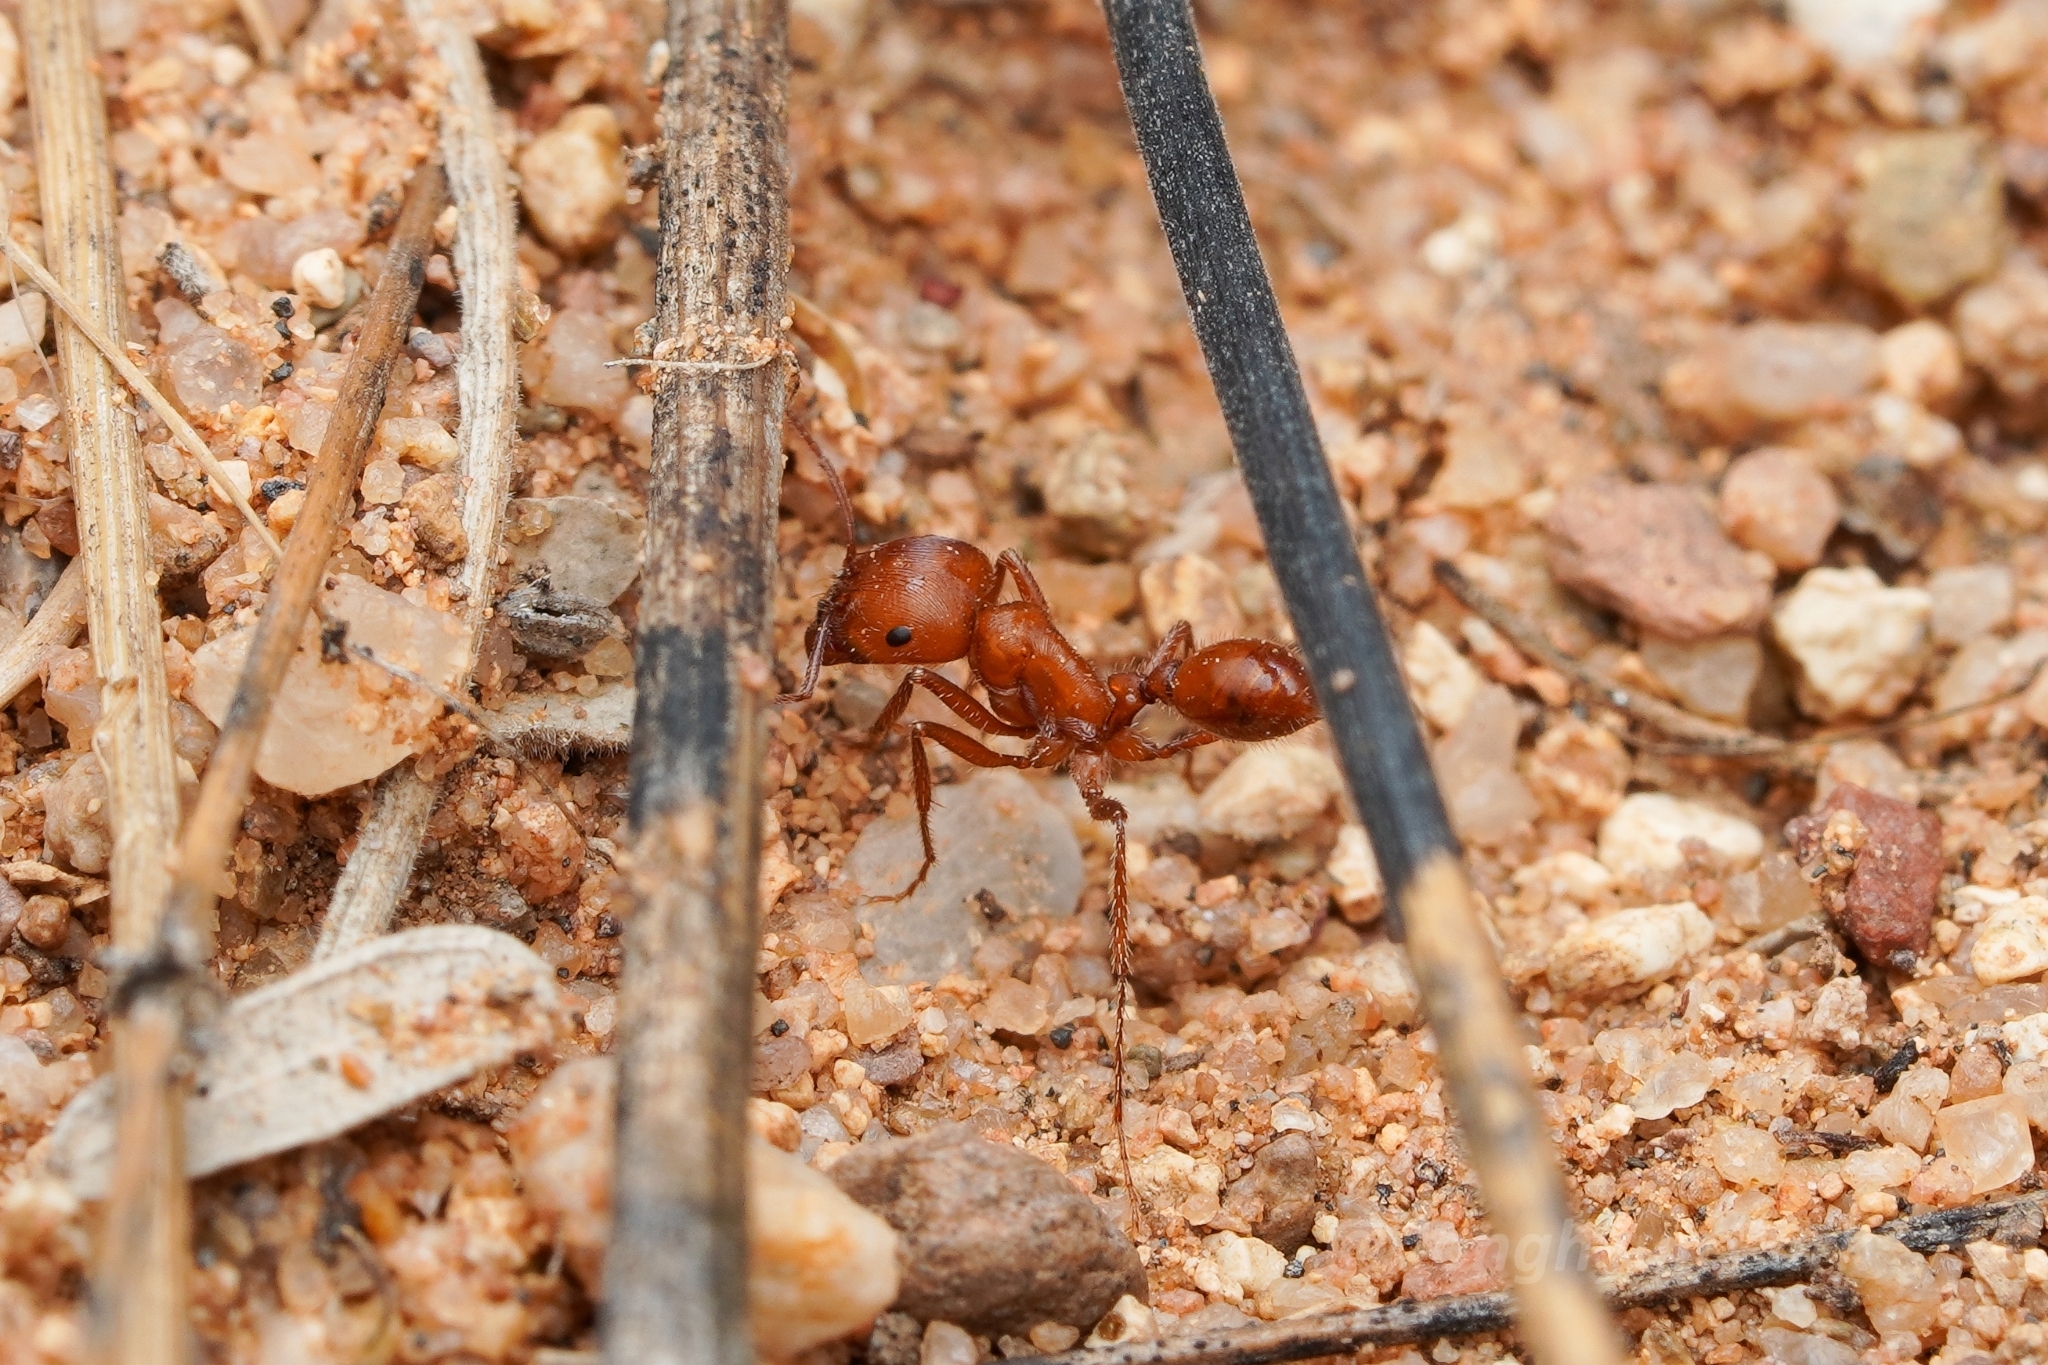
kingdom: Animalia
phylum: Arthropoda
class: Insecta
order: Hymenoptera
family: Formicidae
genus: Pogonomyrmex
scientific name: Pogonomyrmex maricopa
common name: Maricopa harvester ant
